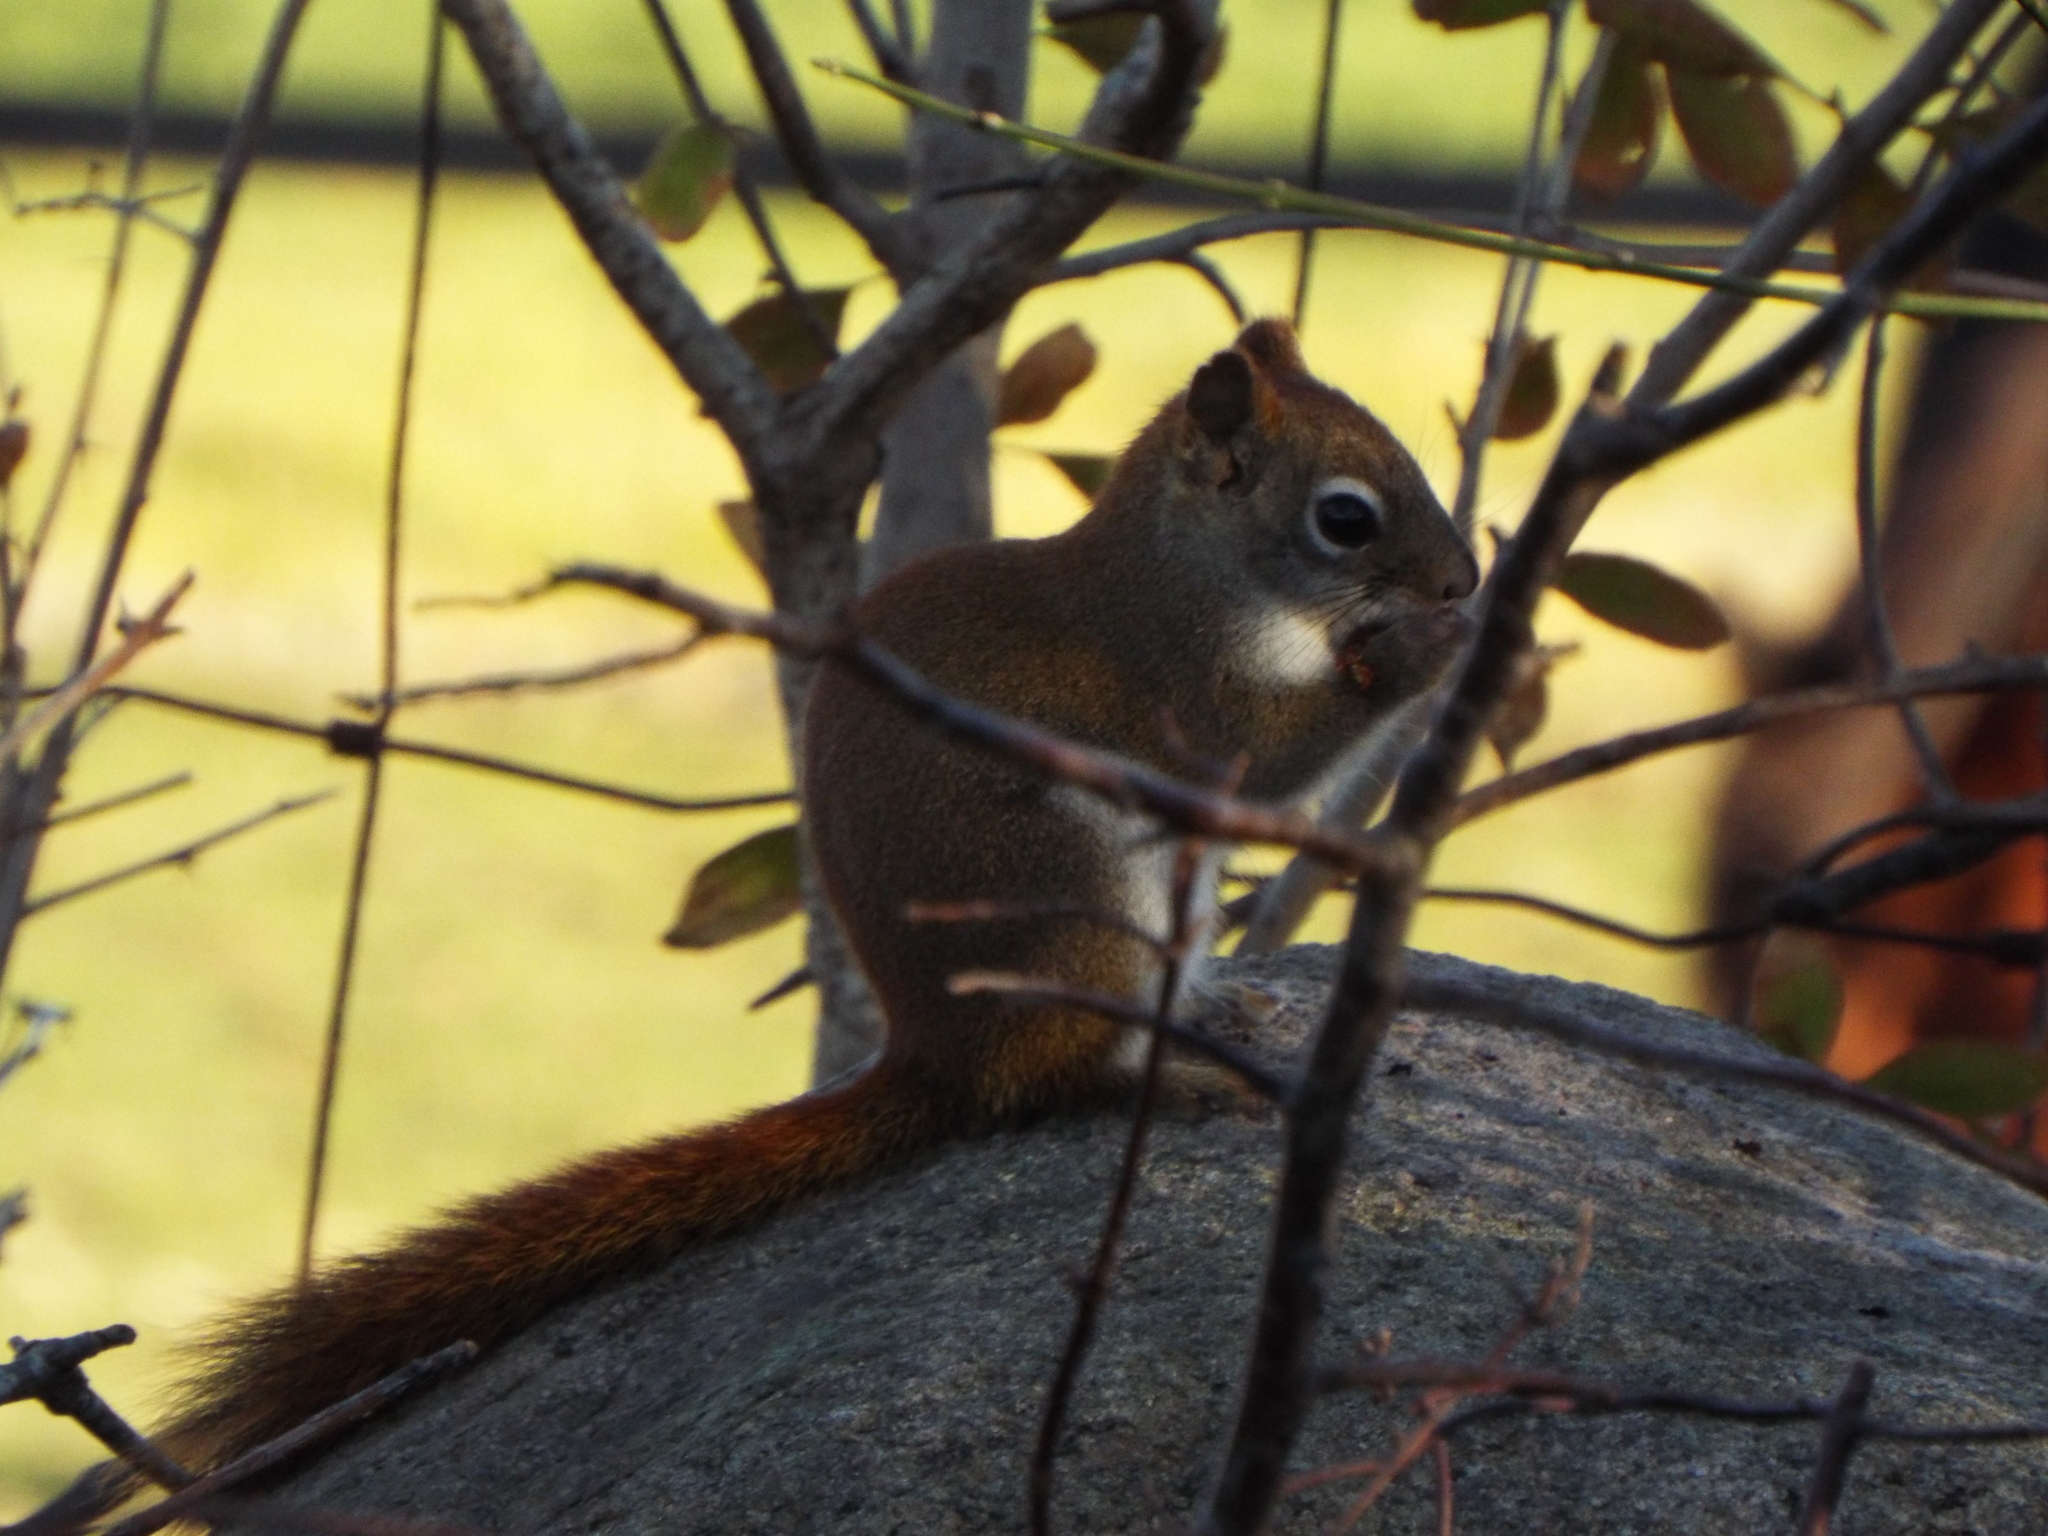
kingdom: Animalia
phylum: Chordata
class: Mammalia
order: Rodentia
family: Sciuridae
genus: Tamiasciurus
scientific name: Tamiasciurus hudsonicus
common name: Red squirrel
